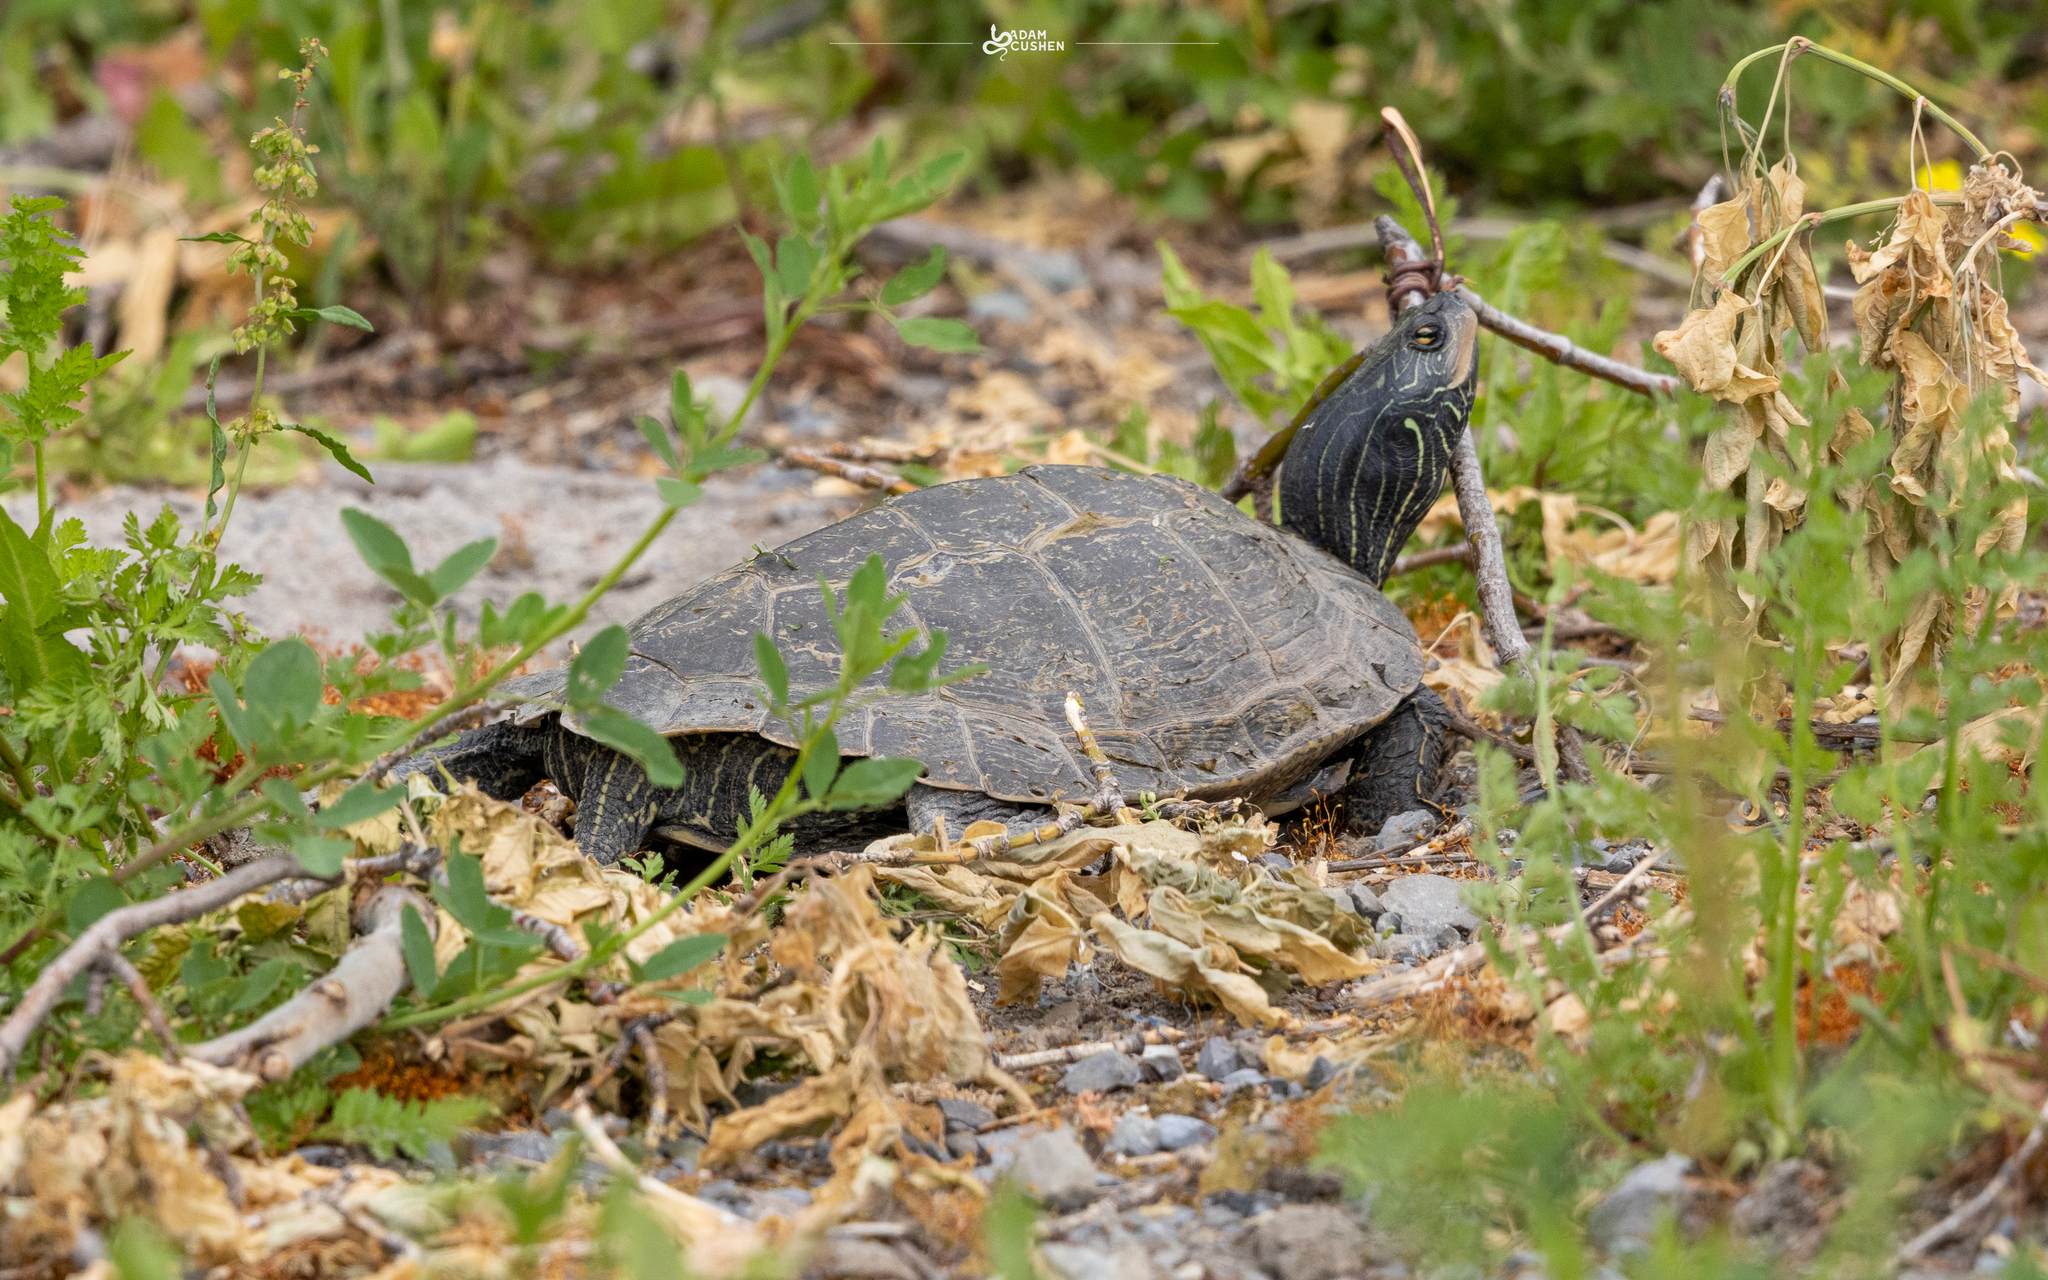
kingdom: Animalia
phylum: Chordata
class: Testudines
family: Emydidae
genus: Graptemys
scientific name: Graptemys geographica
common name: Common map turtle
